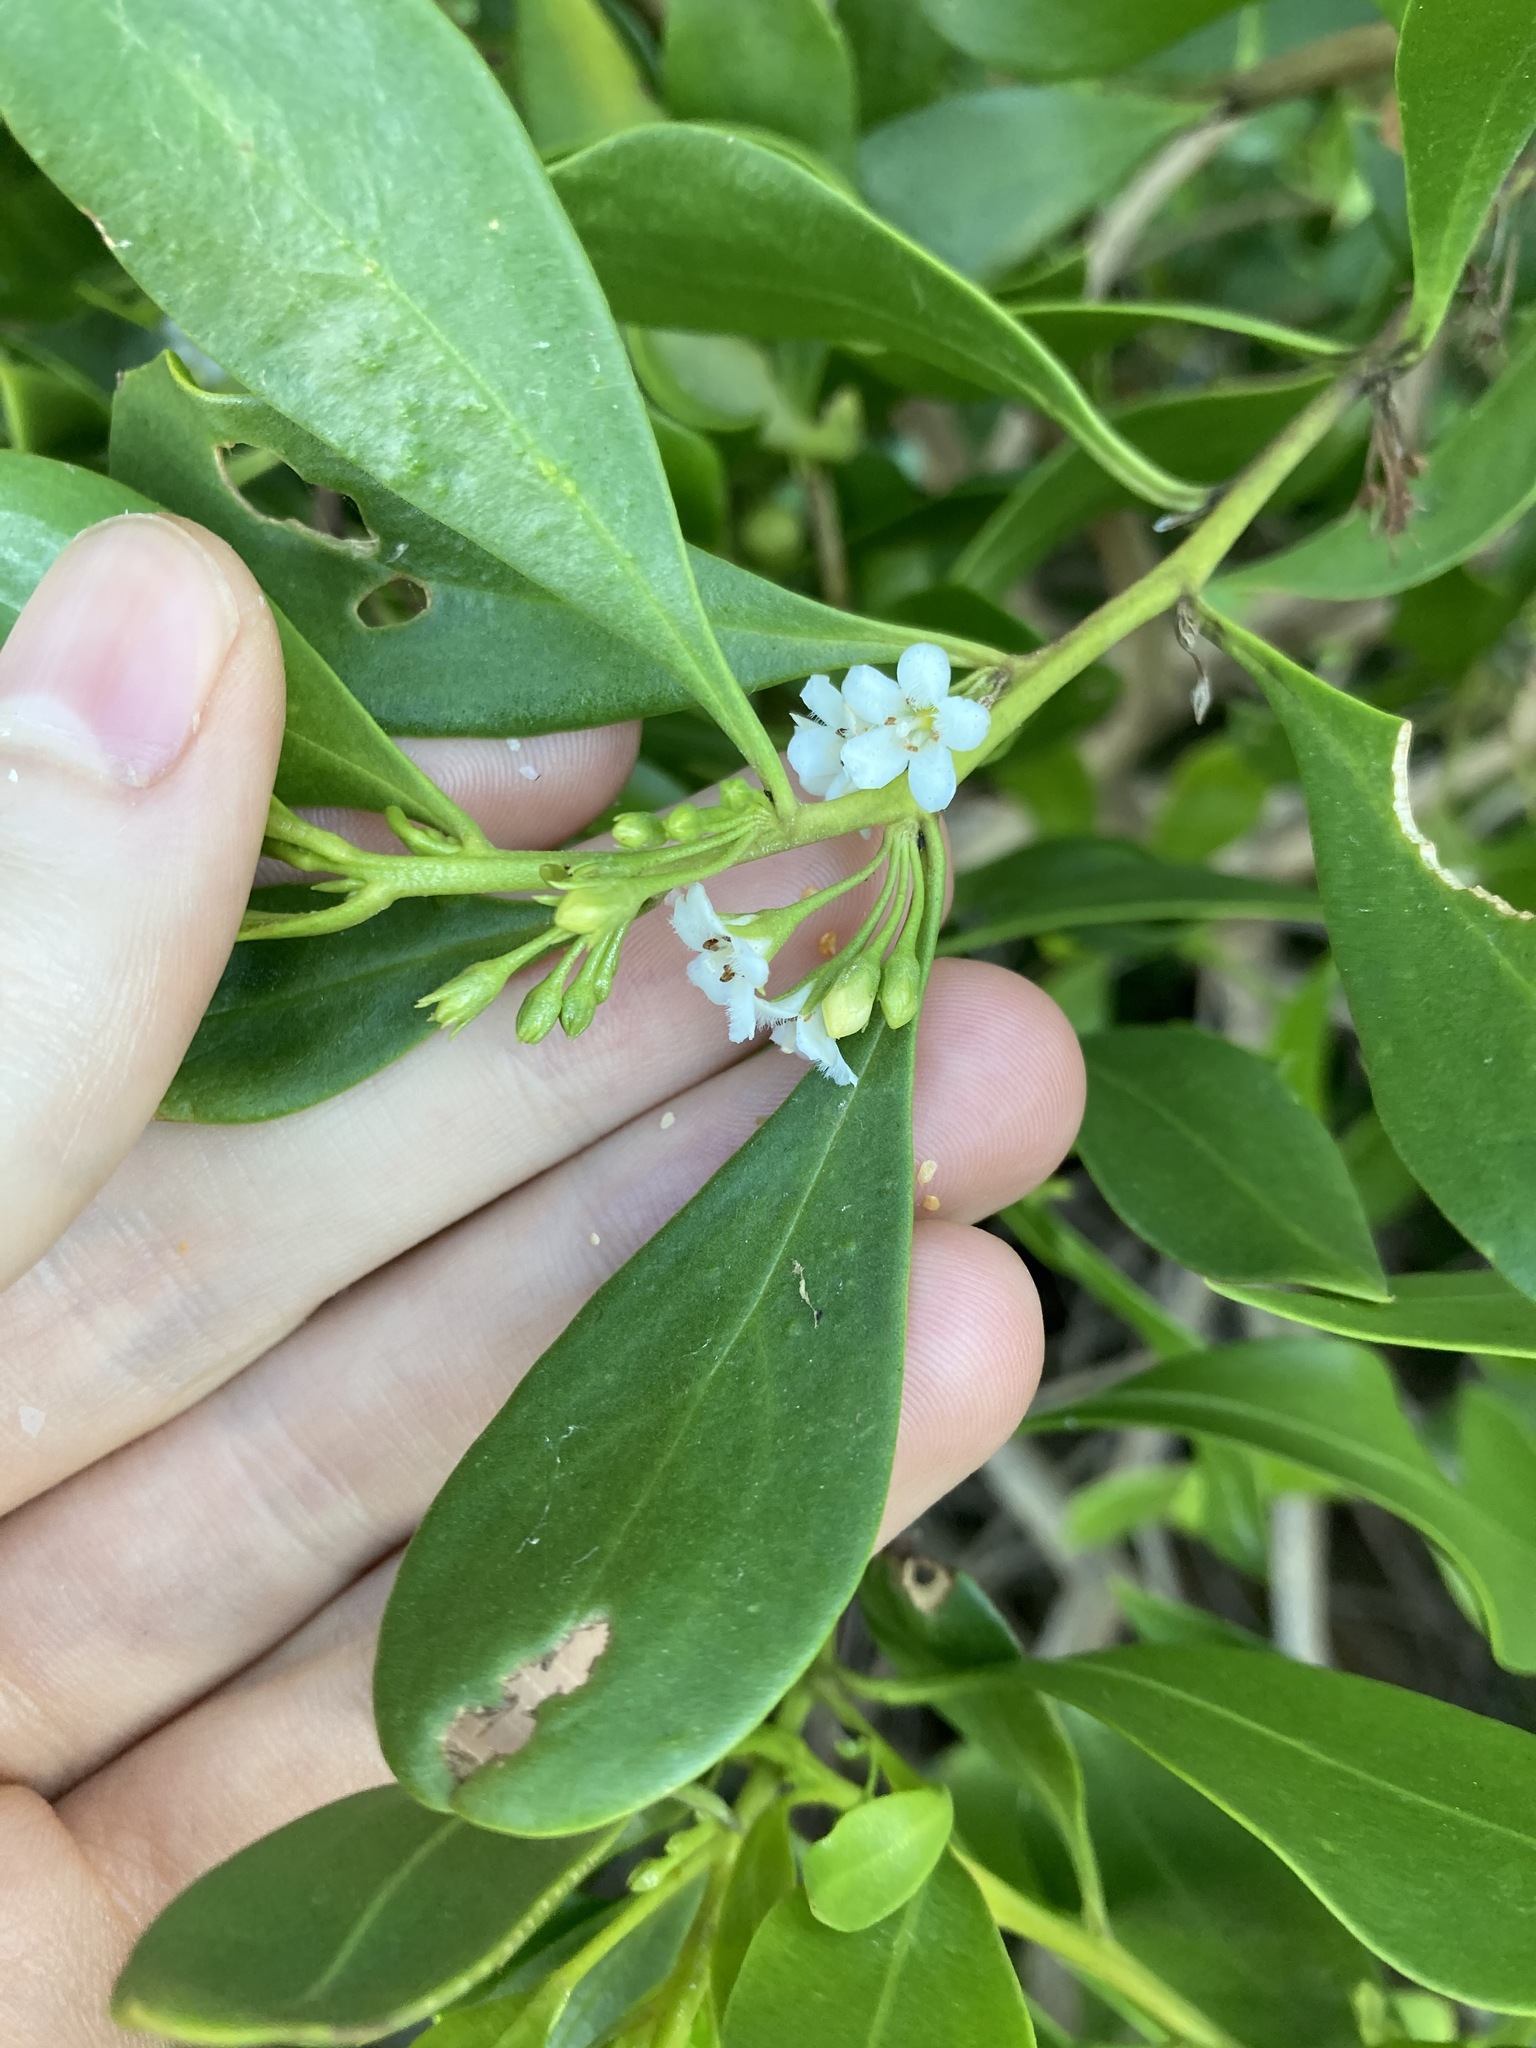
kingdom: Plantae
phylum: Tracheophyta
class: Magnoliopsida
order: Lamiales
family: Scrophulariaceae
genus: Myoporum
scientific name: Myoporum boninense
